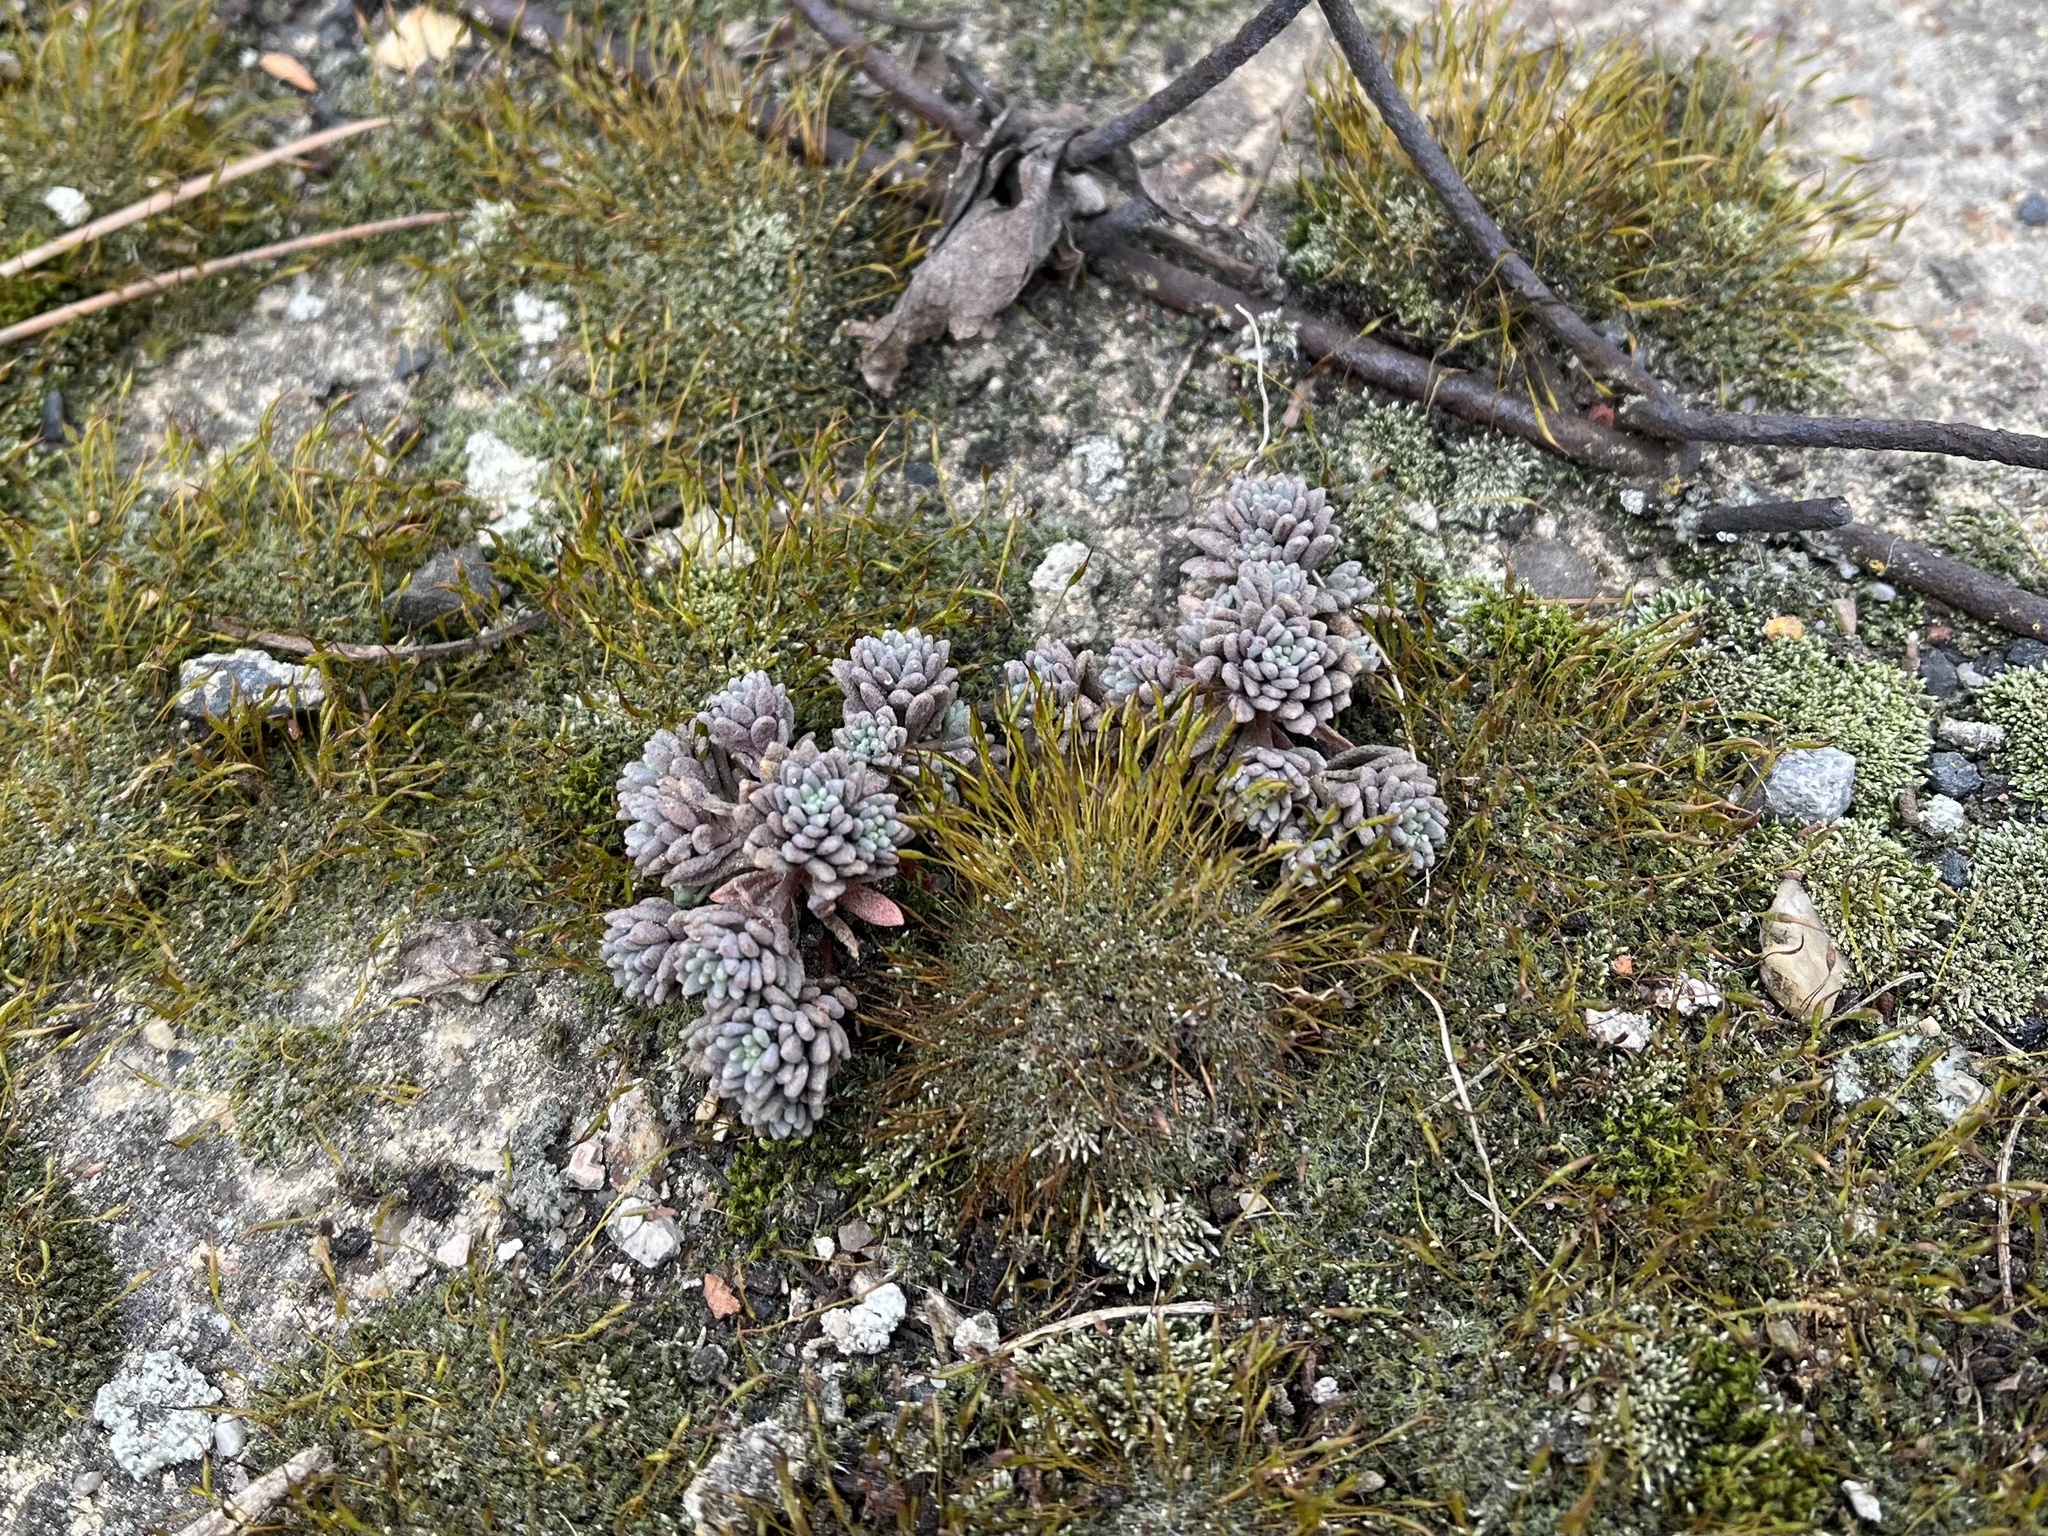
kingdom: Plantae
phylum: Tracheophyta
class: Magnoliopsida
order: Saxifragales
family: Crassulaceae
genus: Sedum
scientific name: Sedum hispanicum
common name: Spanish stonecrop
